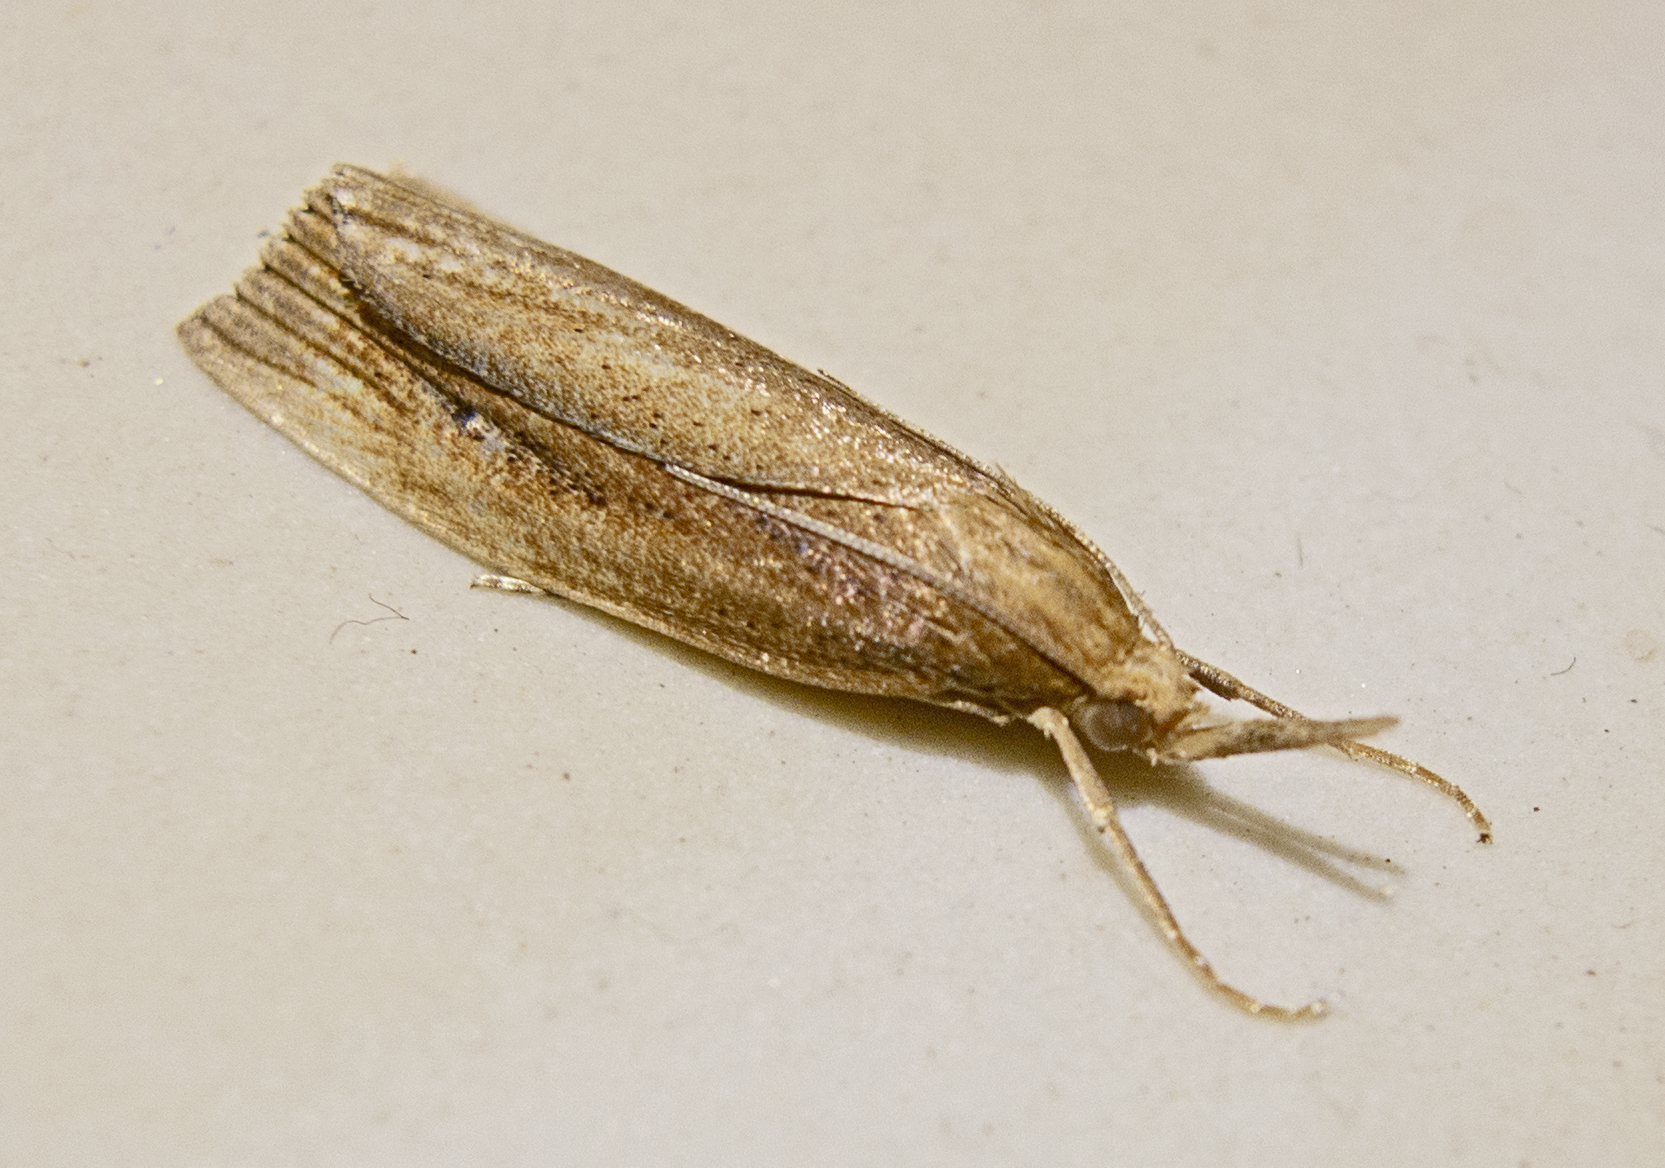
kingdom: Animalia
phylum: Arthropoda
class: Insecta
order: Lepidoptera
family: Crambidae
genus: Chilo
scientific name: Chilo phragmitella
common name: Reed veneer
